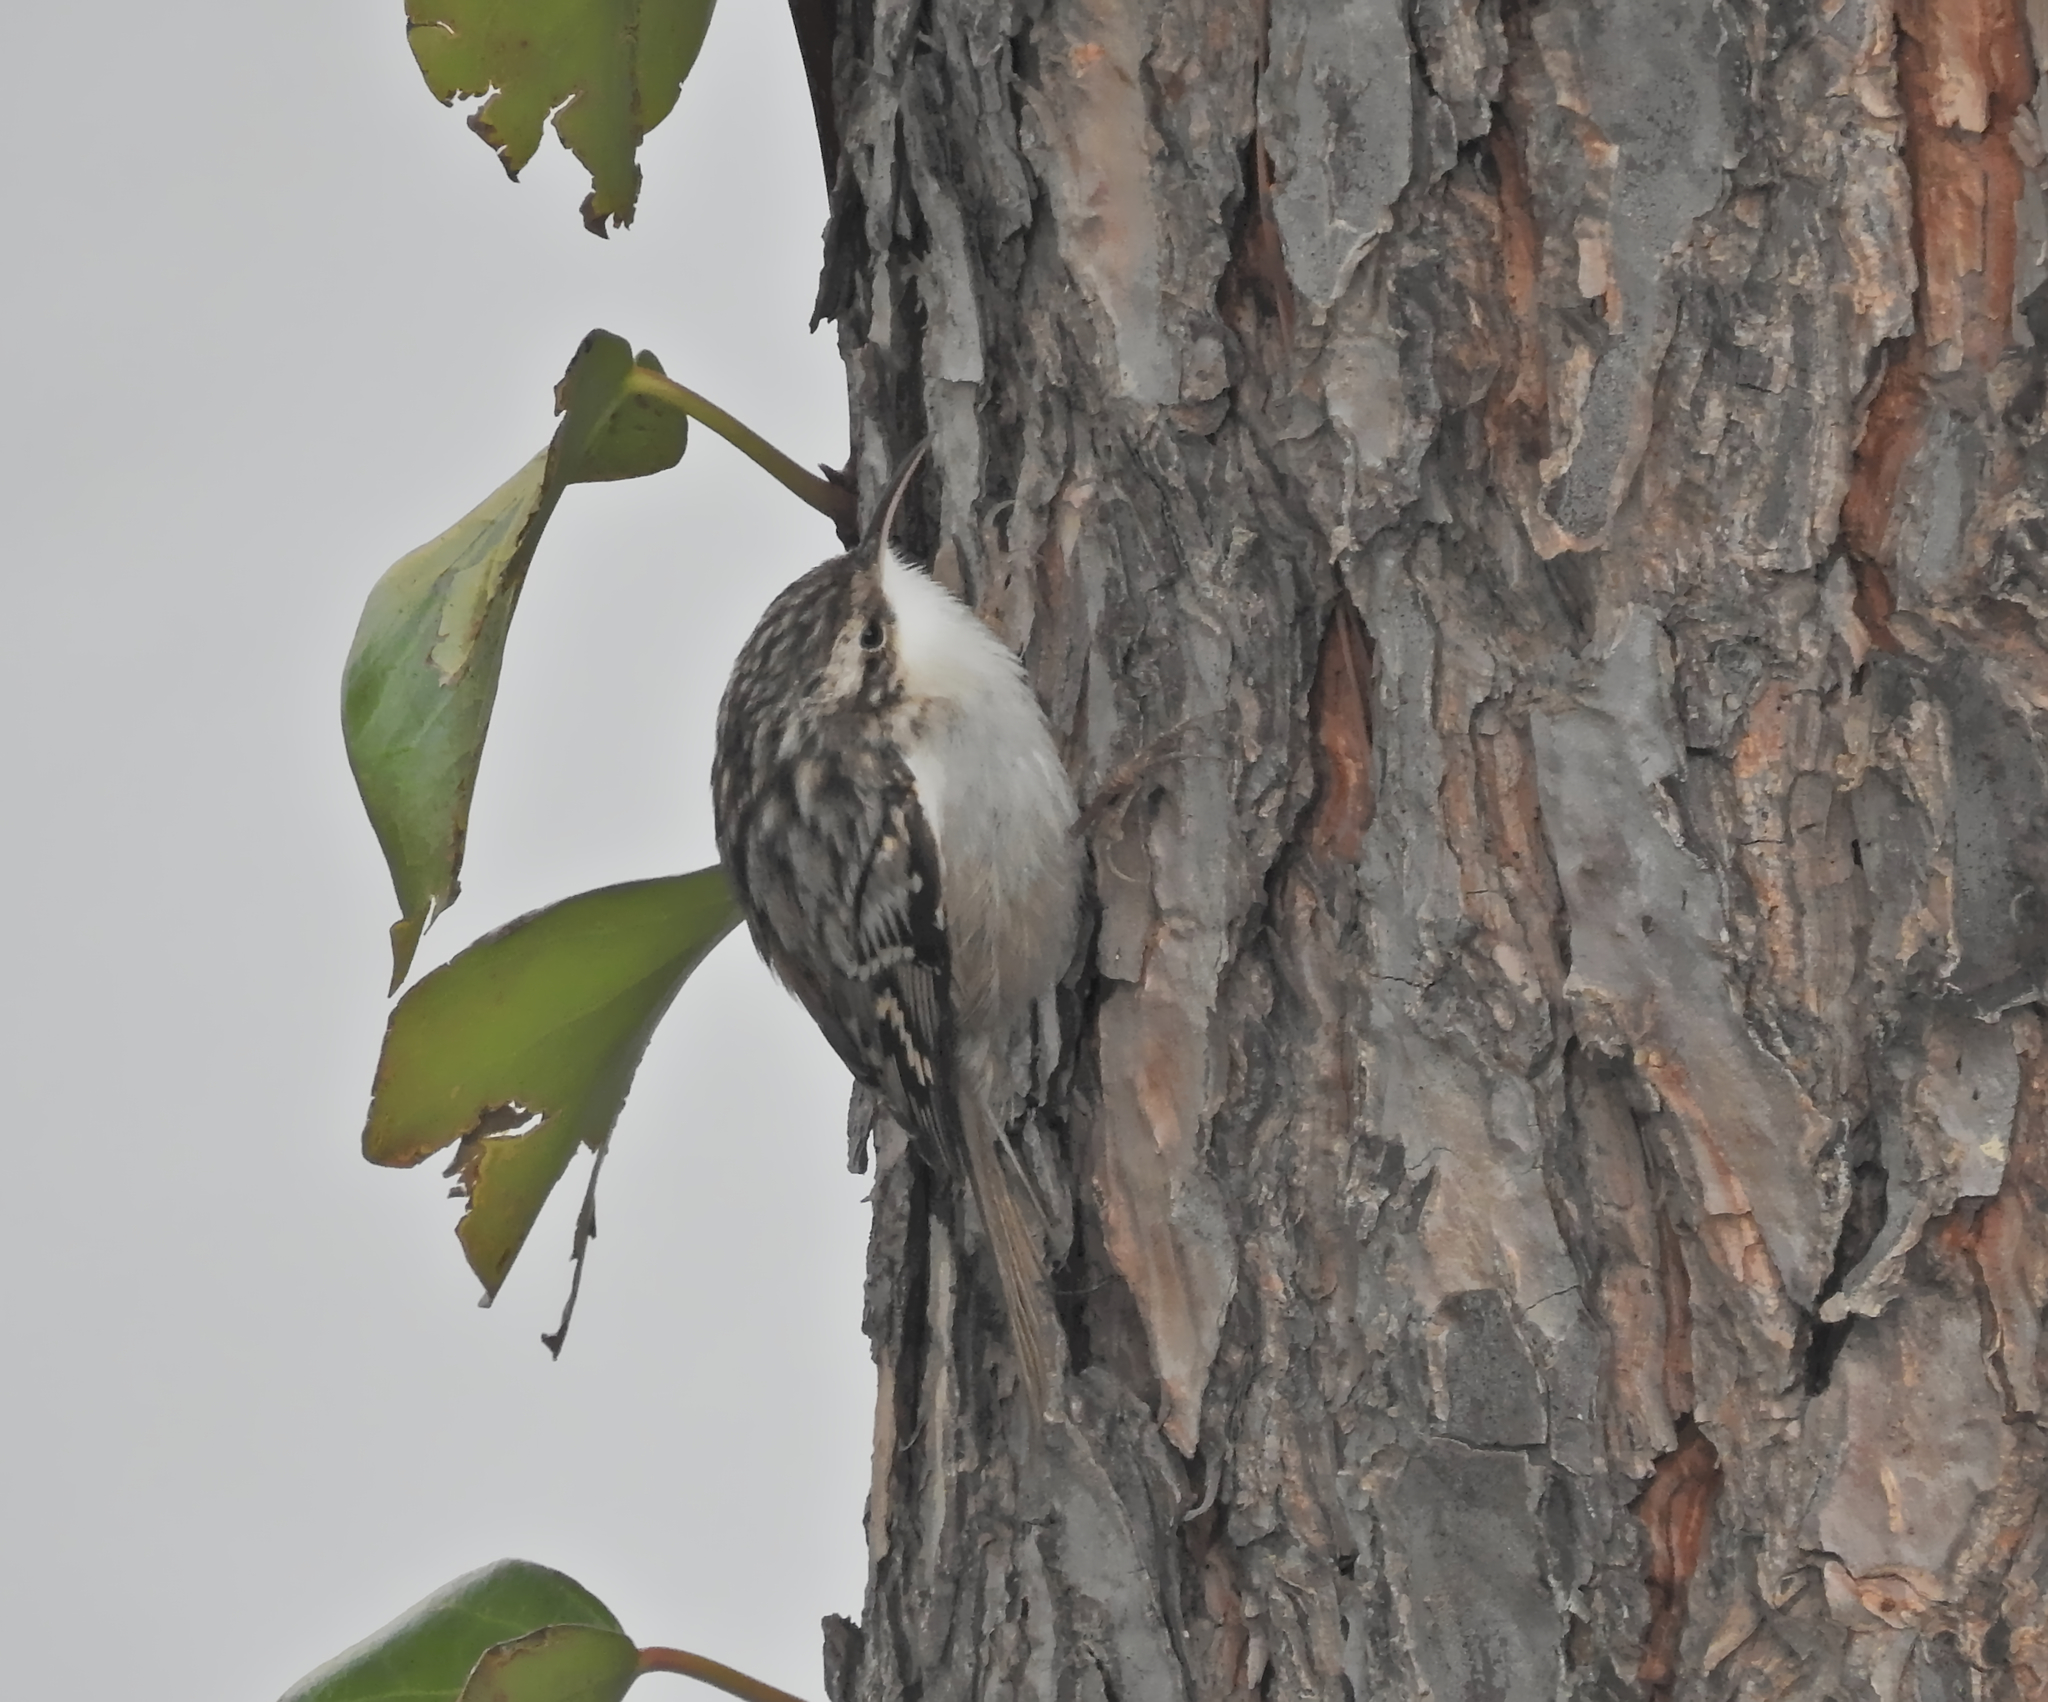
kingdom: Animalia
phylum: Chordata
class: Aves
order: Passeriformes
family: Certhiidae
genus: Certhia
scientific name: Certhia brachydactyla
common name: Short-toed treecreeper
